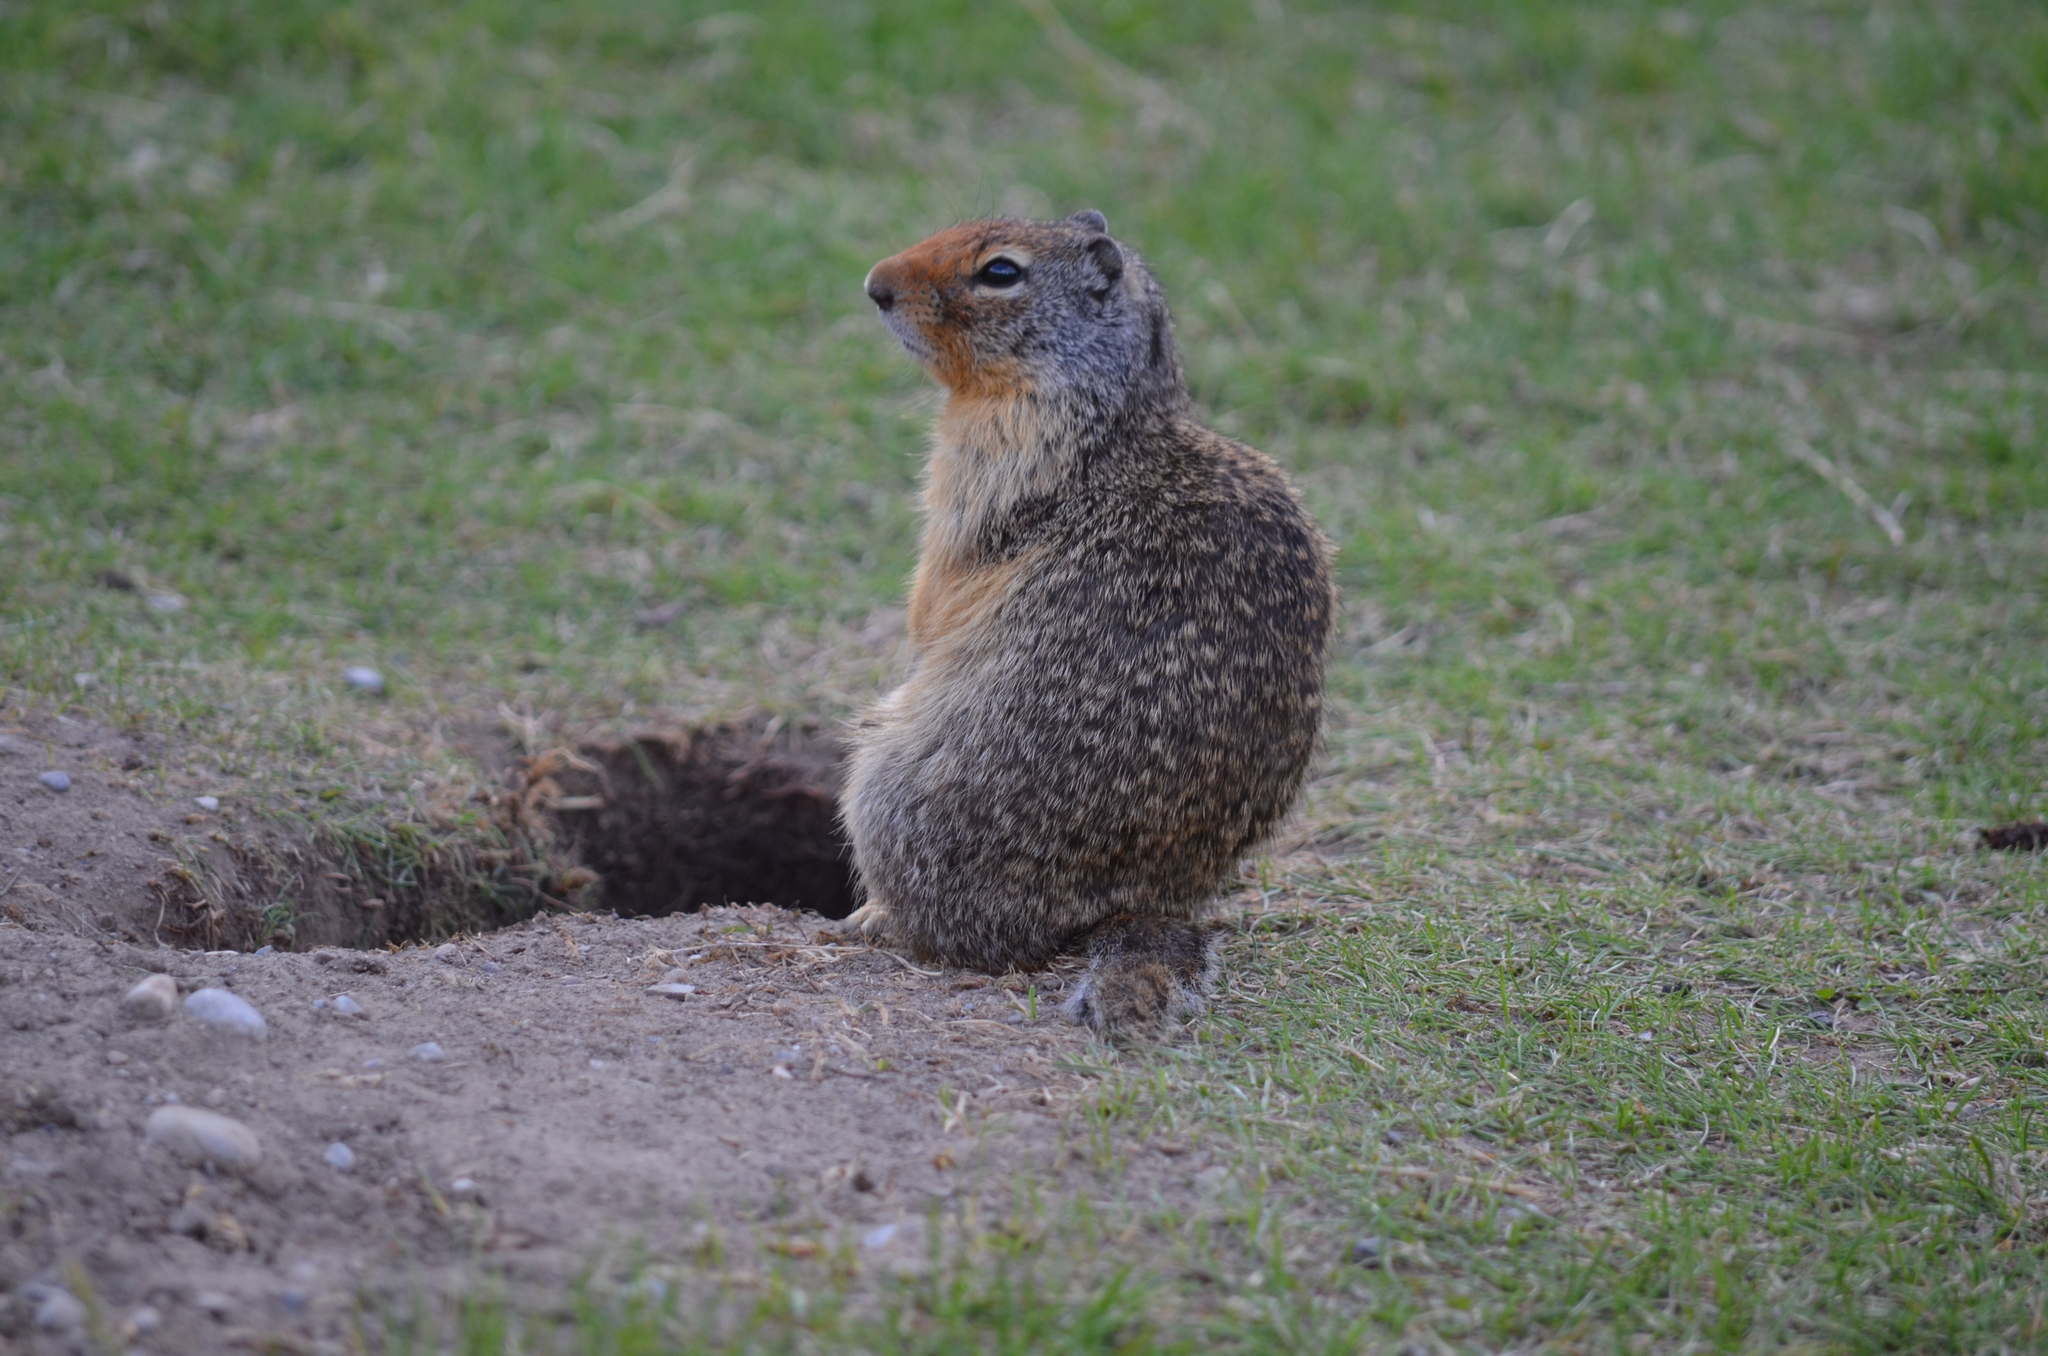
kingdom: Animalia
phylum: Chordata
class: Mammalia
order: Rodentia
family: Sciuridae
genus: Urocitellus
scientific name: Urocitellus columbianus
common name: Columbian ground squirrel
